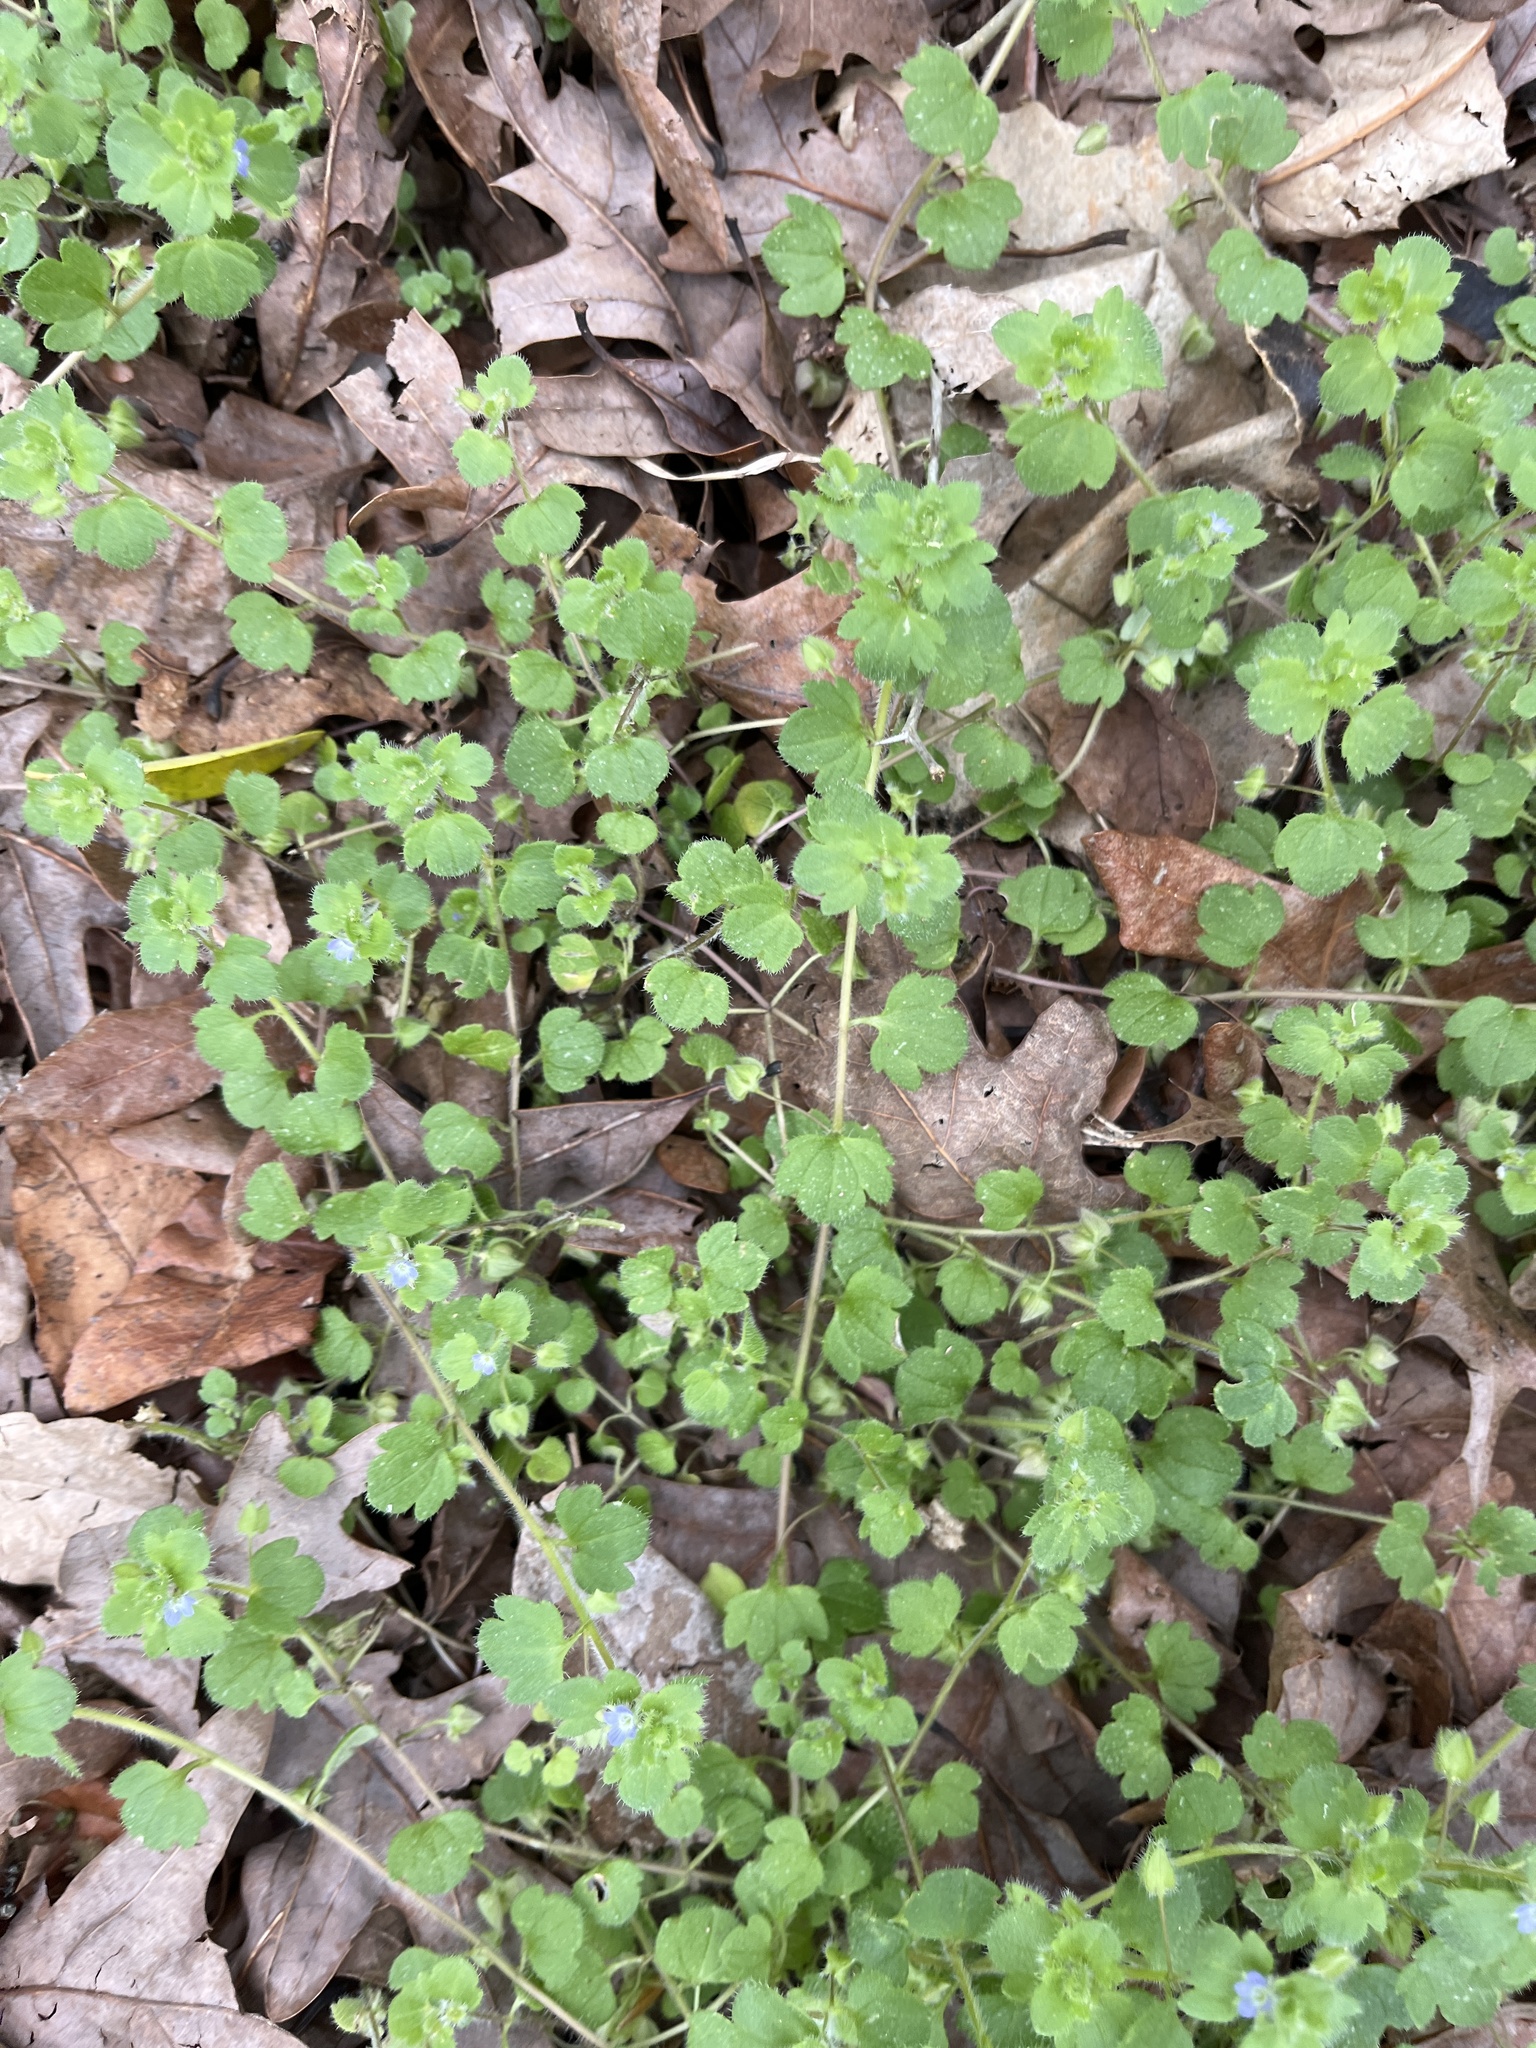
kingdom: Plantae
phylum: Tracheophyta
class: Magnoliopsida
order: Lamiales
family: Plantaginaceae
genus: Veronica
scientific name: Veronica hederifolia
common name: Ivy-leaved speedwell
